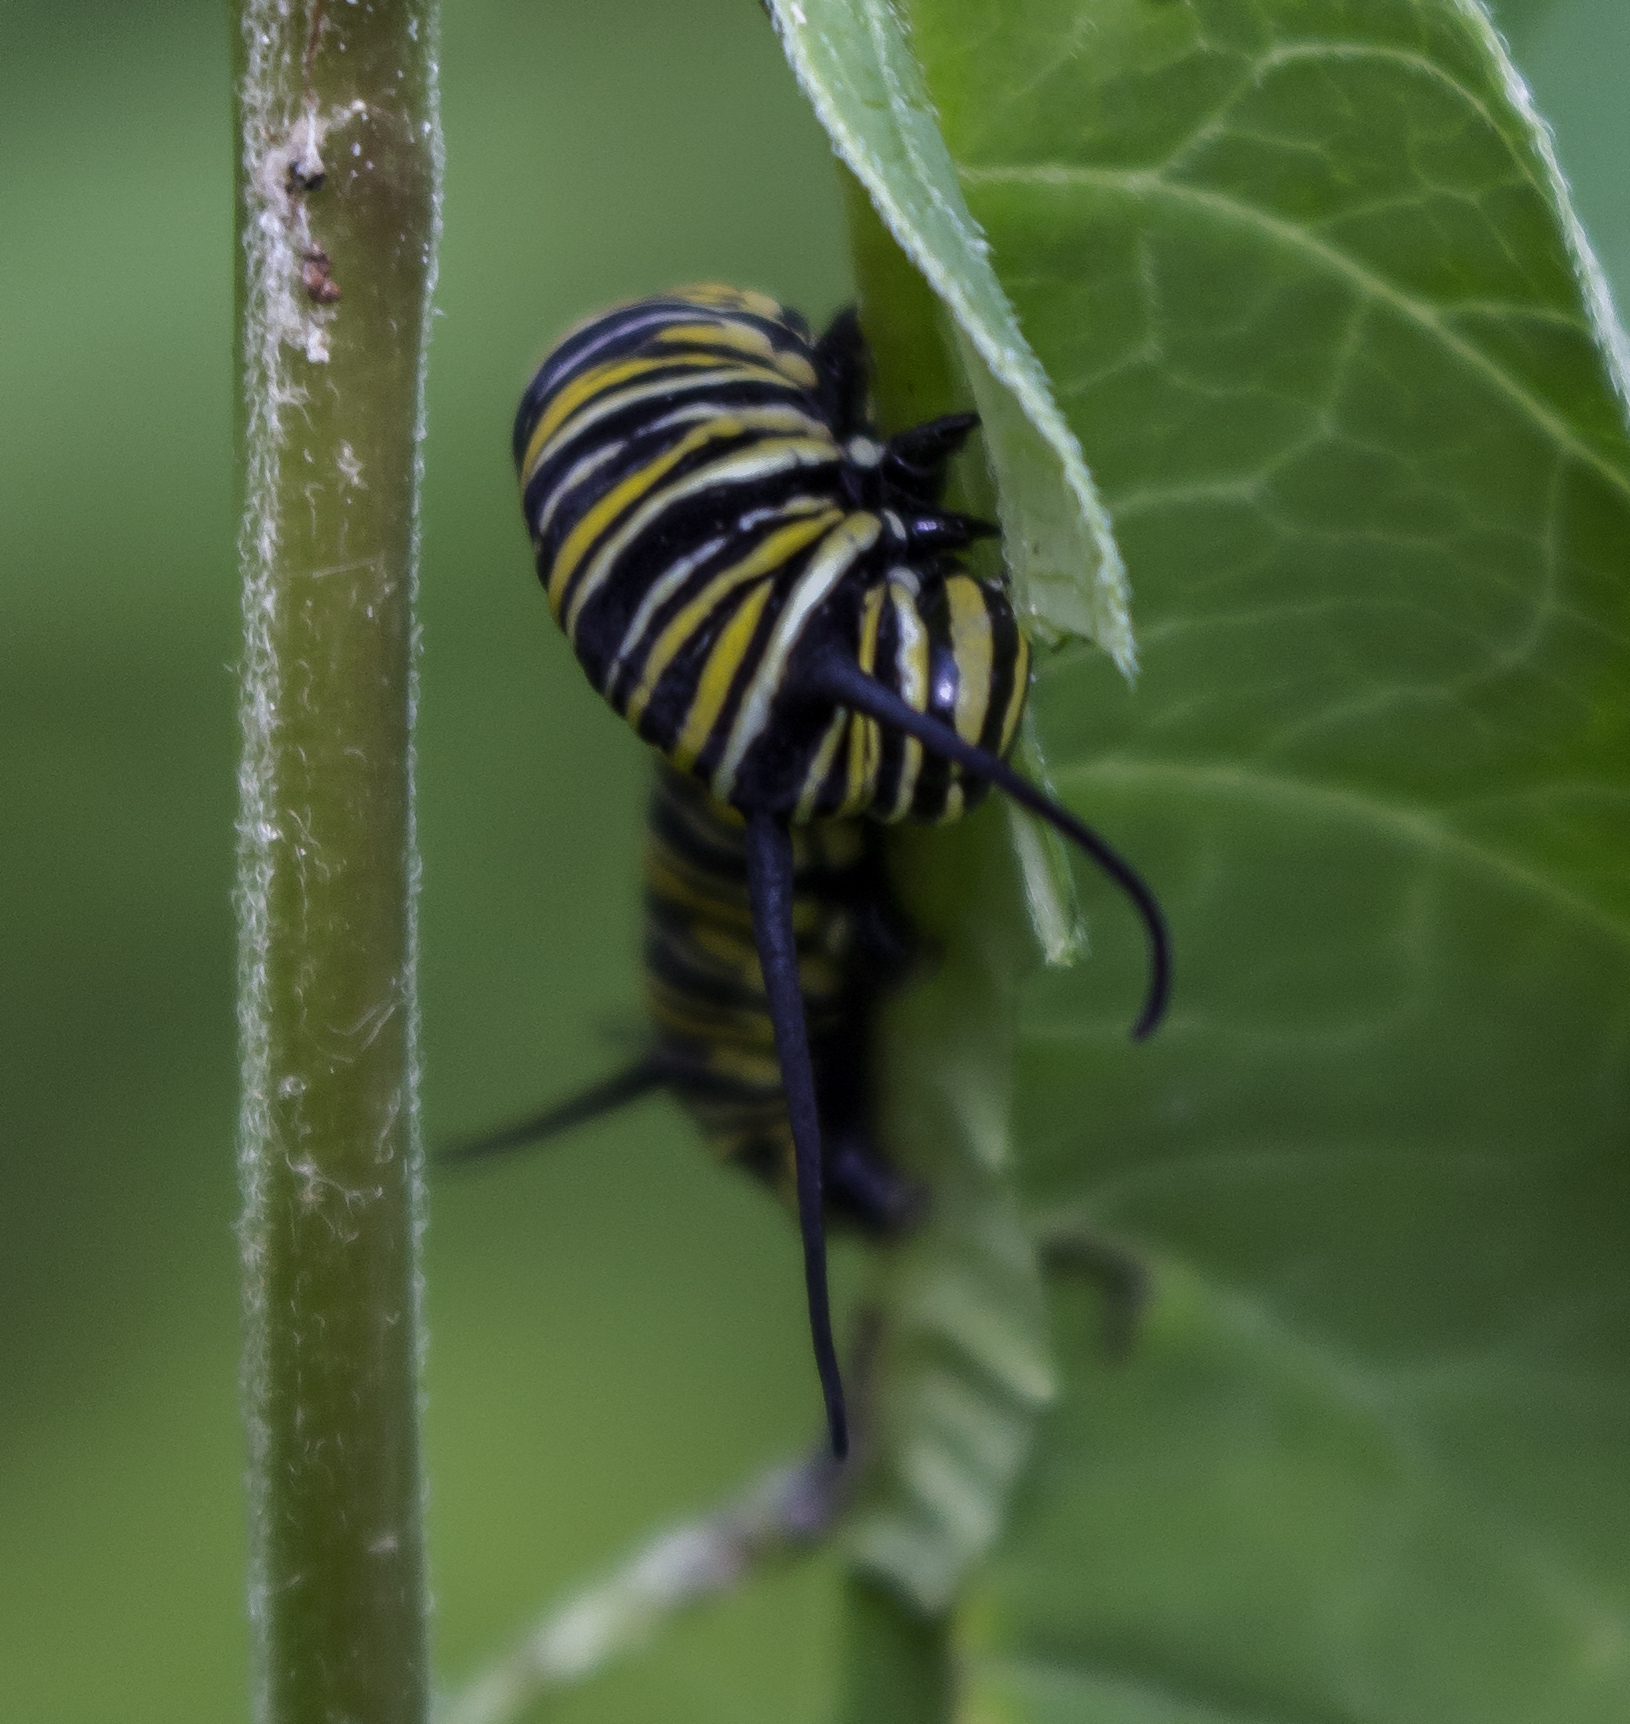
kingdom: Animalia
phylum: Arthropoda
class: Insecta
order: Lepidoptera
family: Nymphalidae
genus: Danaus
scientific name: Danaus plexippus
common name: Monarch
